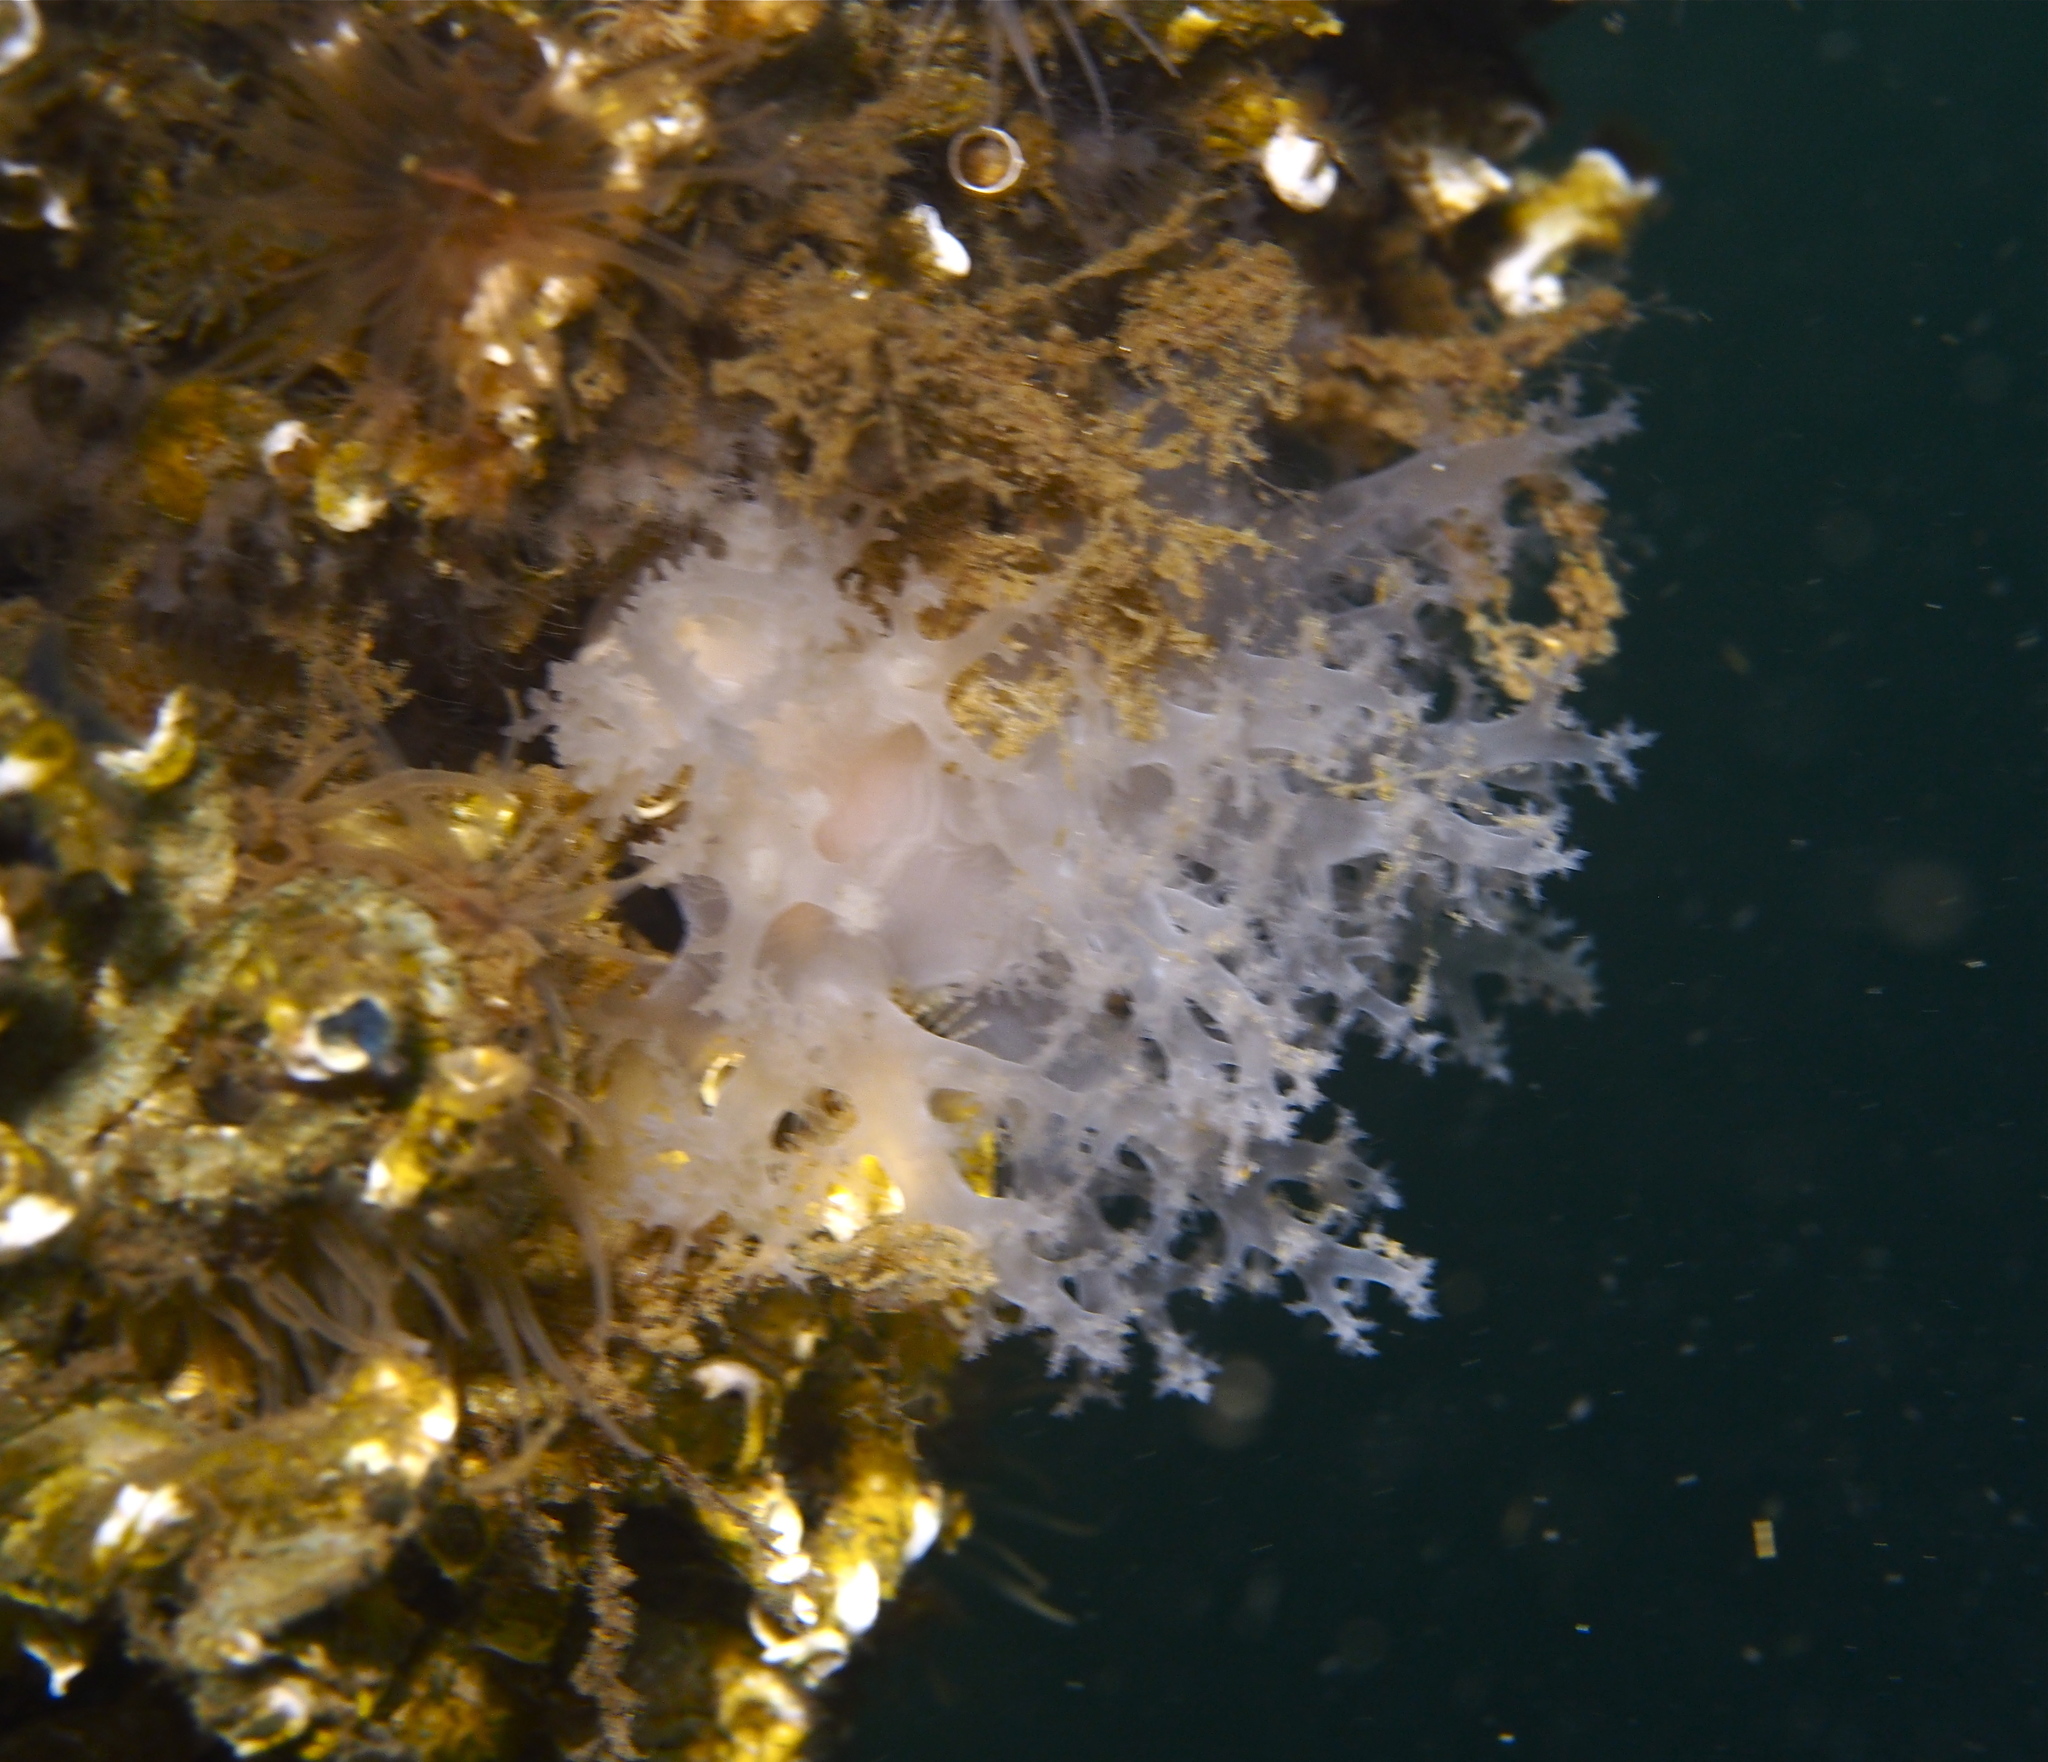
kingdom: Animalia
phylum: Mollusca
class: Gastropoda
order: Nudibranchia
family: Dendronotidae
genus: Dendronotus
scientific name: Dendronotus lacteus
